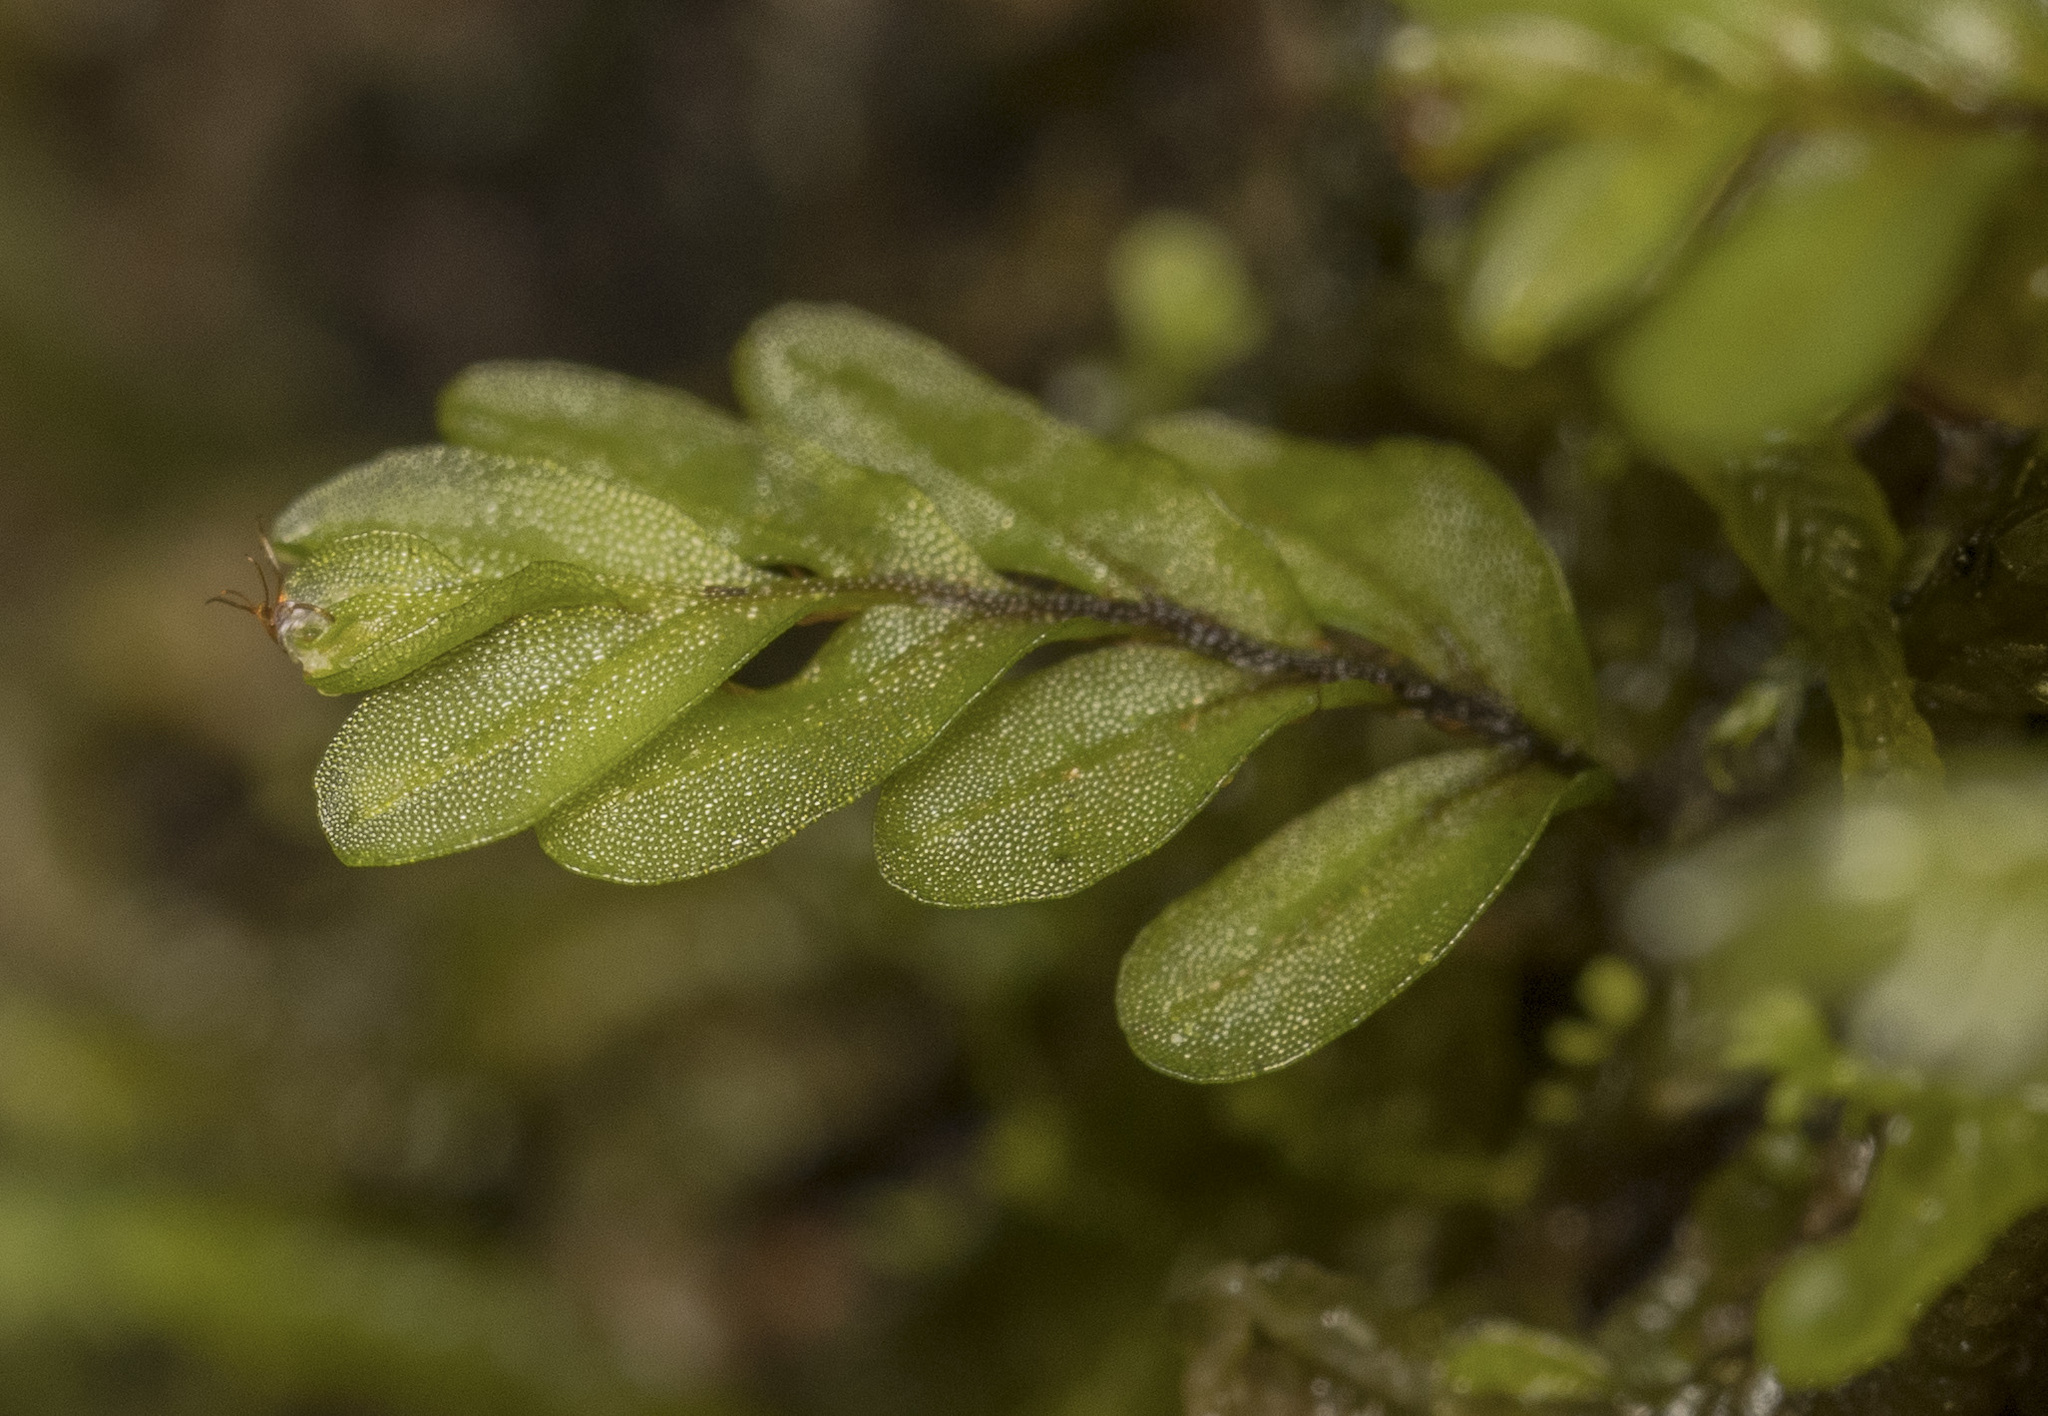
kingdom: Plantae
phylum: Tracheophyta
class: Polypodiopsida
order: Hymenophyllales
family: Hymenophyllaceae
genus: Hymenophyllum
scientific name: Hymenophyllum caespitosum
